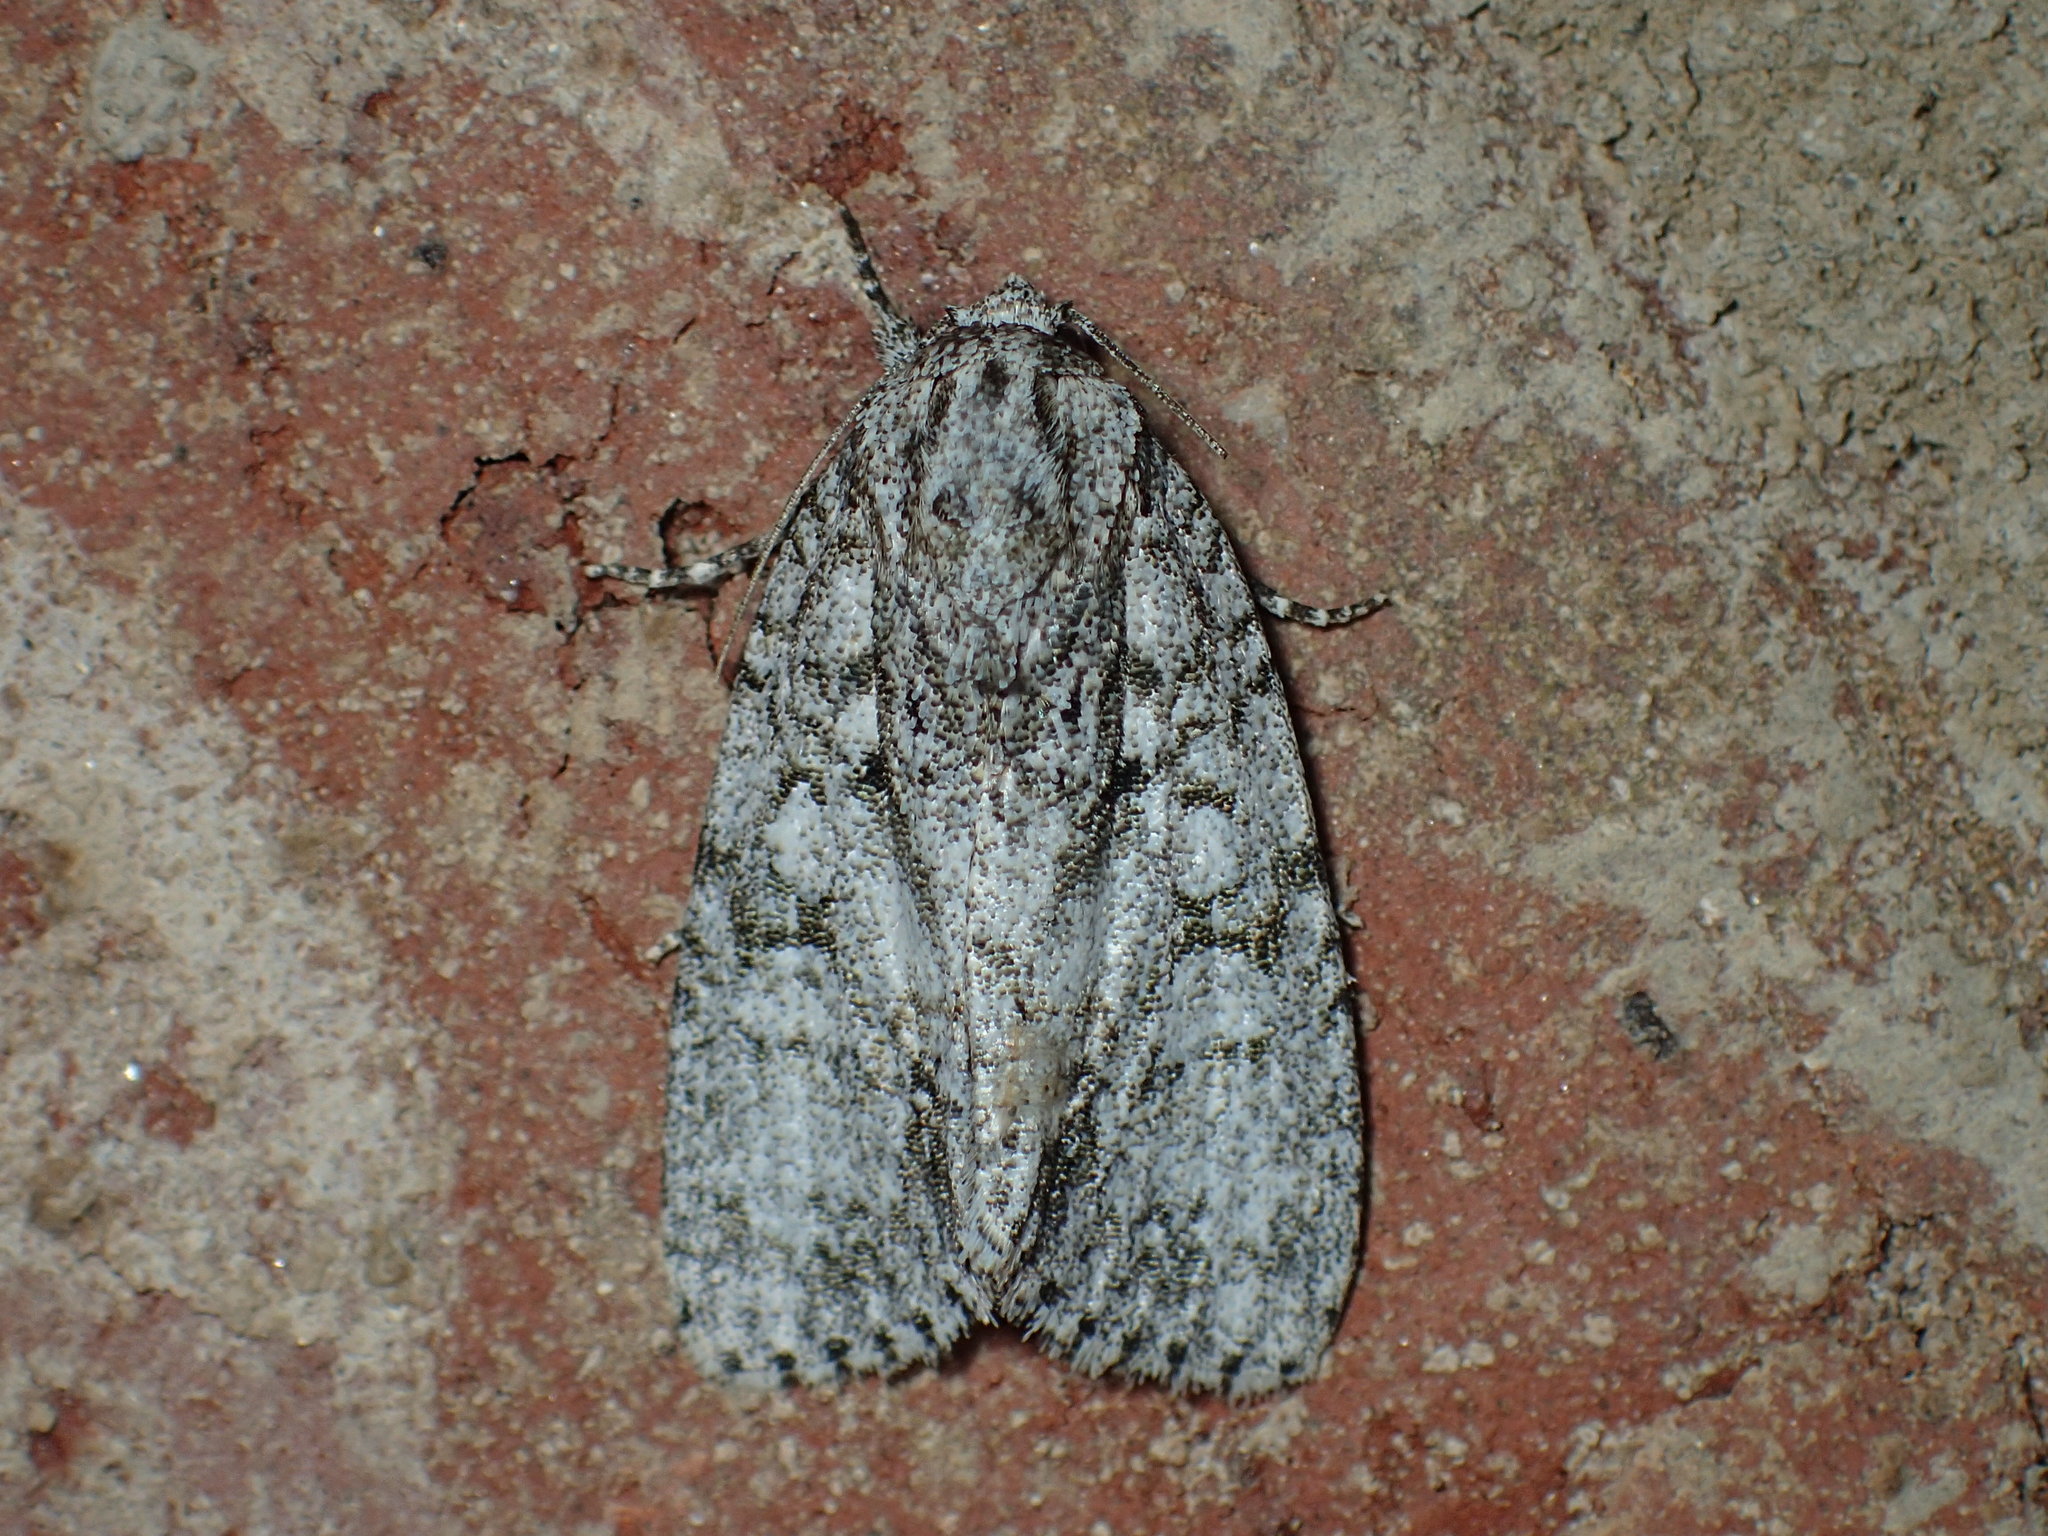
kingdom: Animalia
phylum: Arthropoda
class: Insecta
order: Lepidoptera
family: Noctuidae
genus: Acronicta
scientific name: Acronicta retardata
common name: Maple dagger
